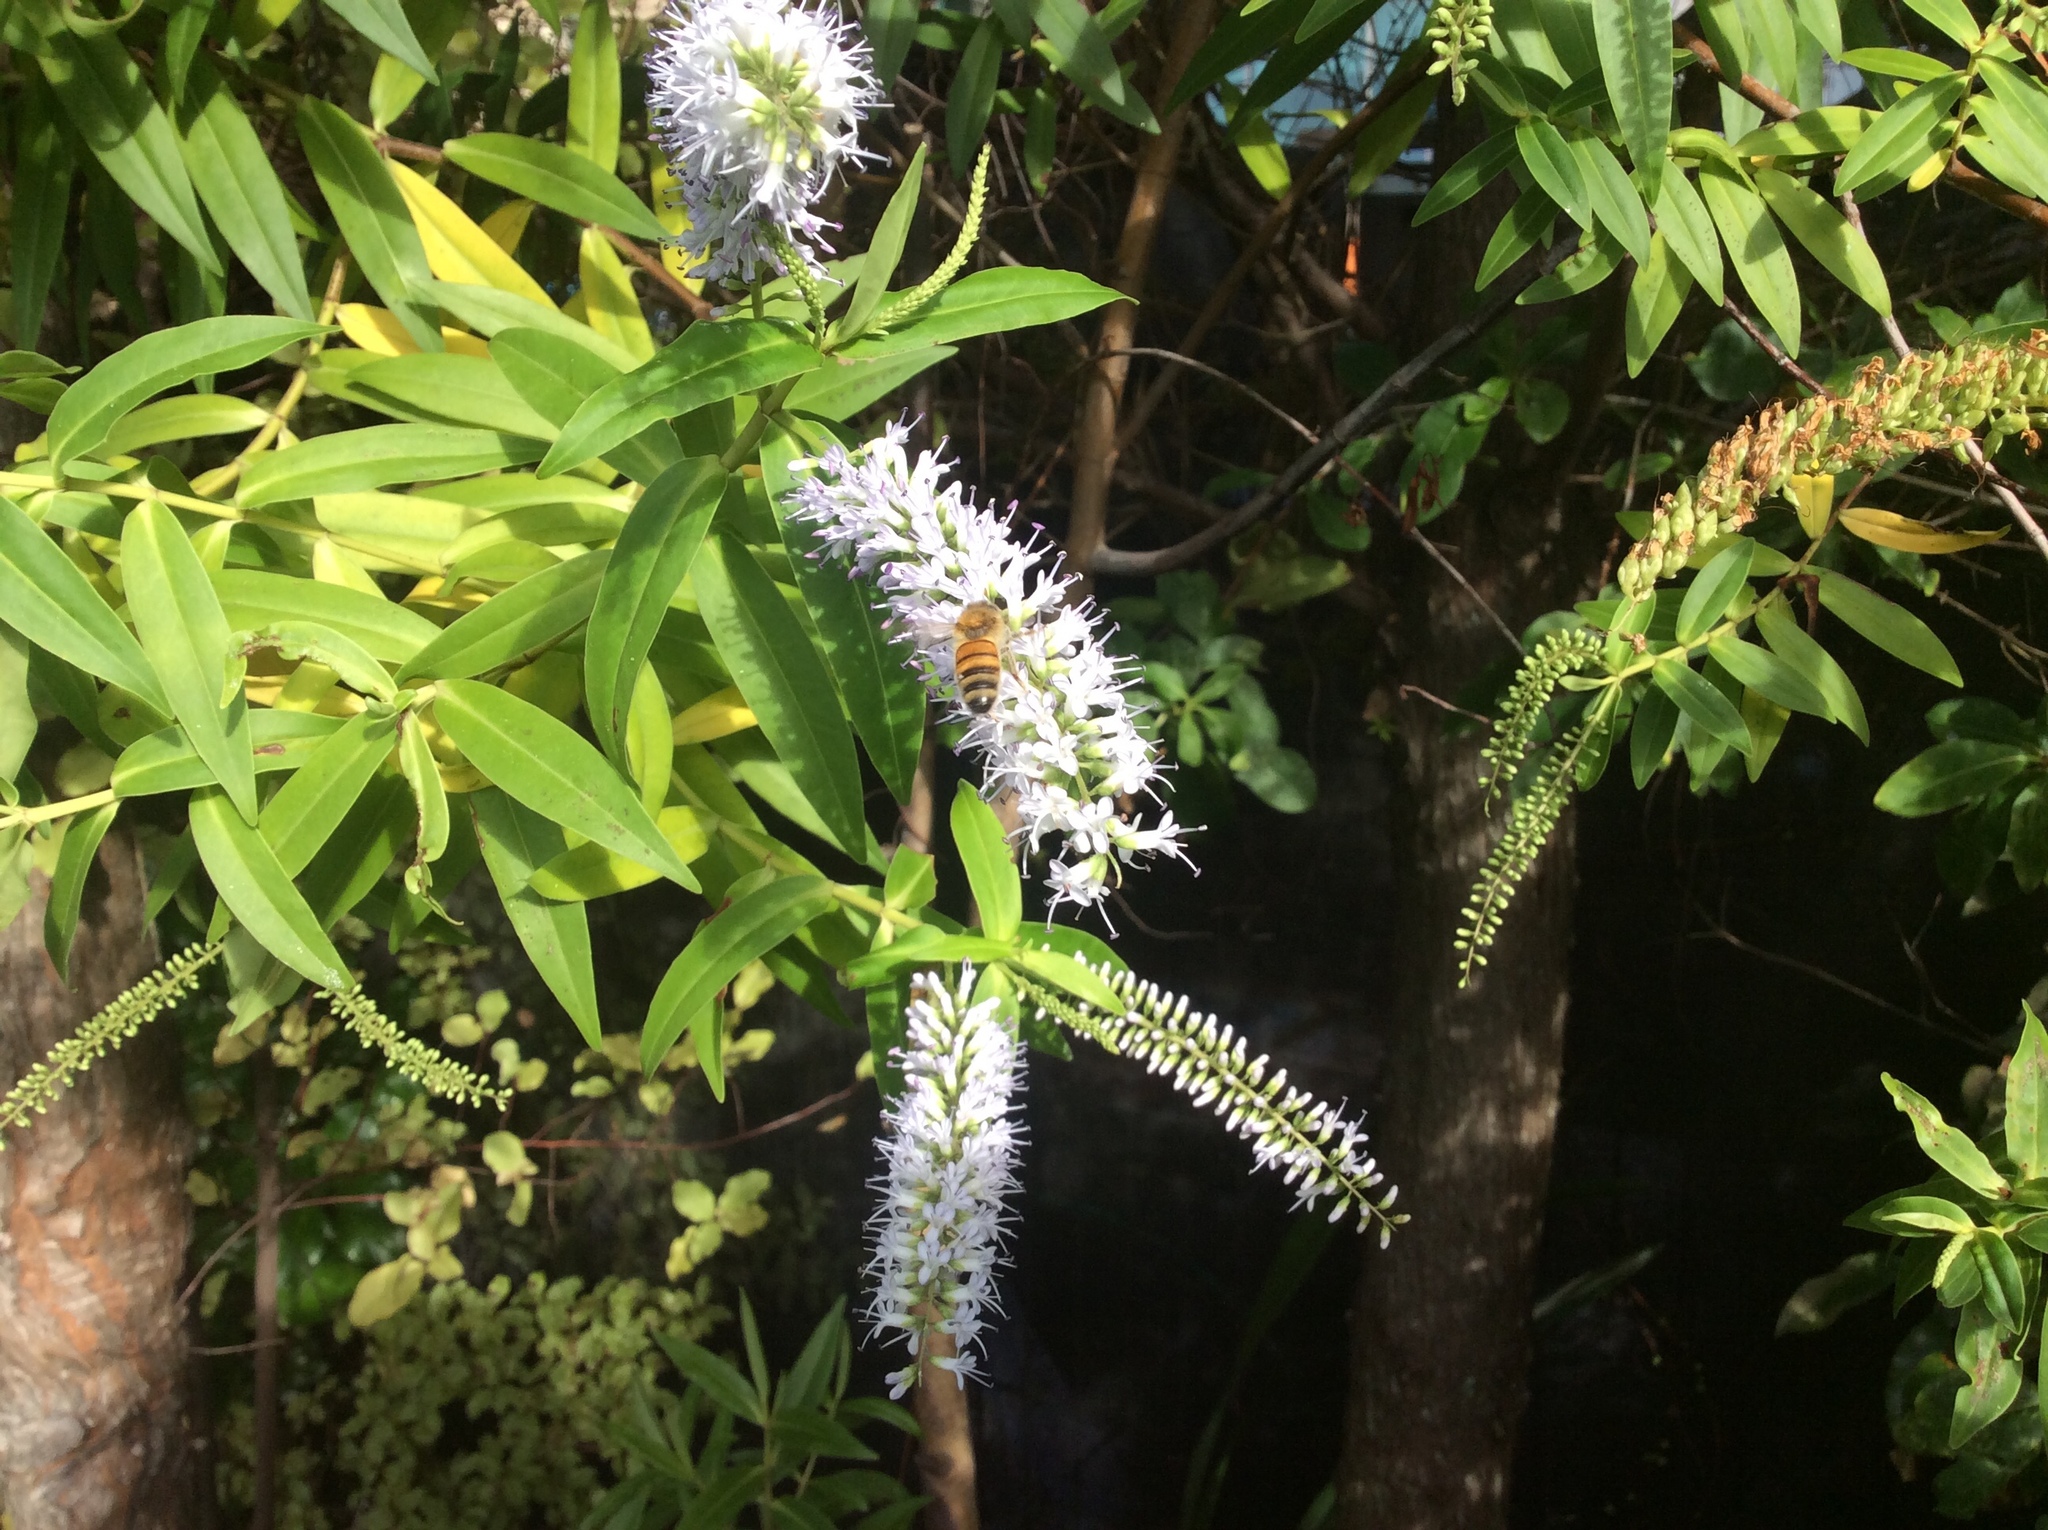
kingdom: Animalia
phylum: Arthropoda
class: Insecta
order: Hymenoptera
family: Apidae
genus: Apis
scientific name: Apis mellifera
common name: Honey bee
